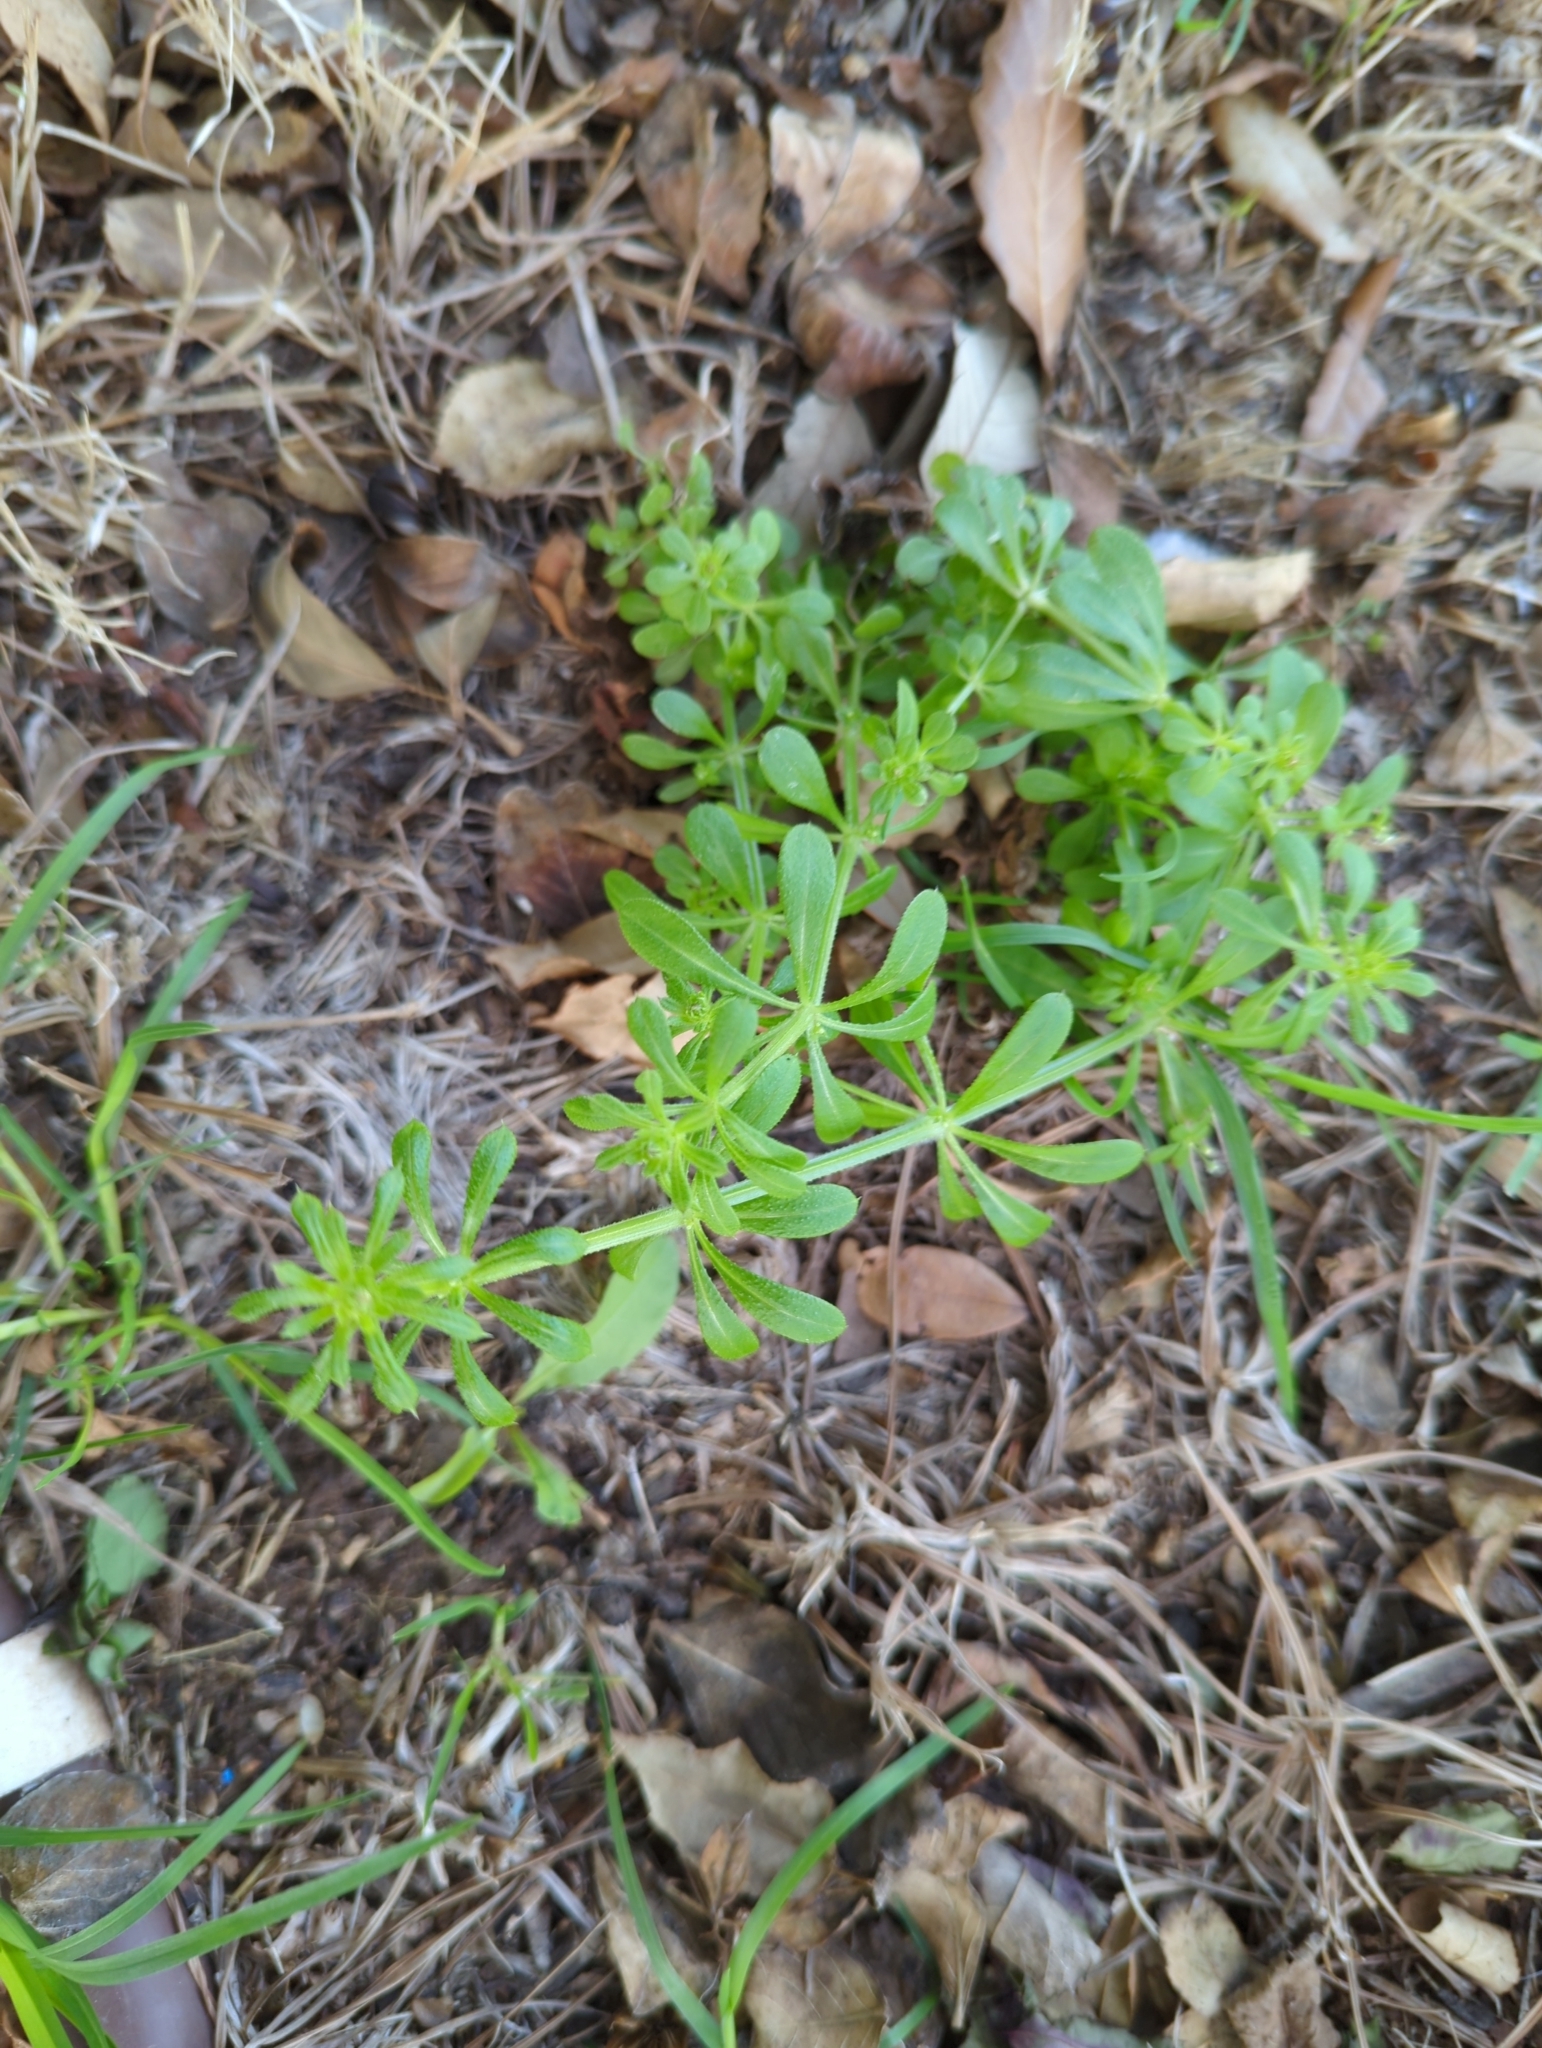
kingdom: Plantae
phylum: Tracheophyta
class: Magnoliopsida
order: Gentianales
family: Rubiaceae
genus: Galium
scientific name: Galium aparine
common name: Cleavers
